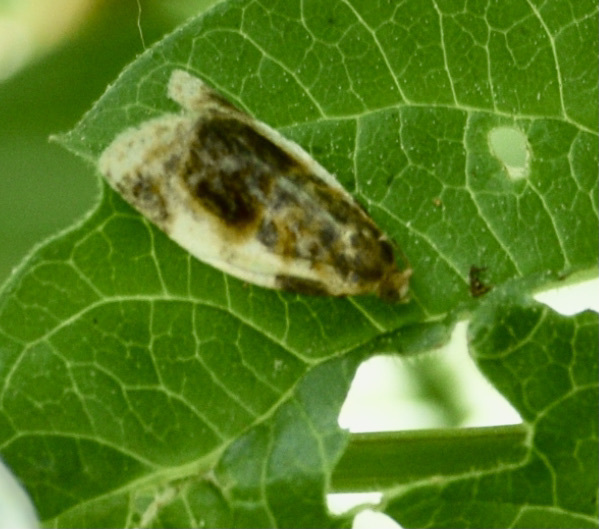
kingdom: Animalia
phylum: Arthropoda
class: Insecta
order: Lepidoptera
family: Tortricidae
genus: Clepsis
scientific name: Clepsis melaleucanus
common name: American apple tortrix
